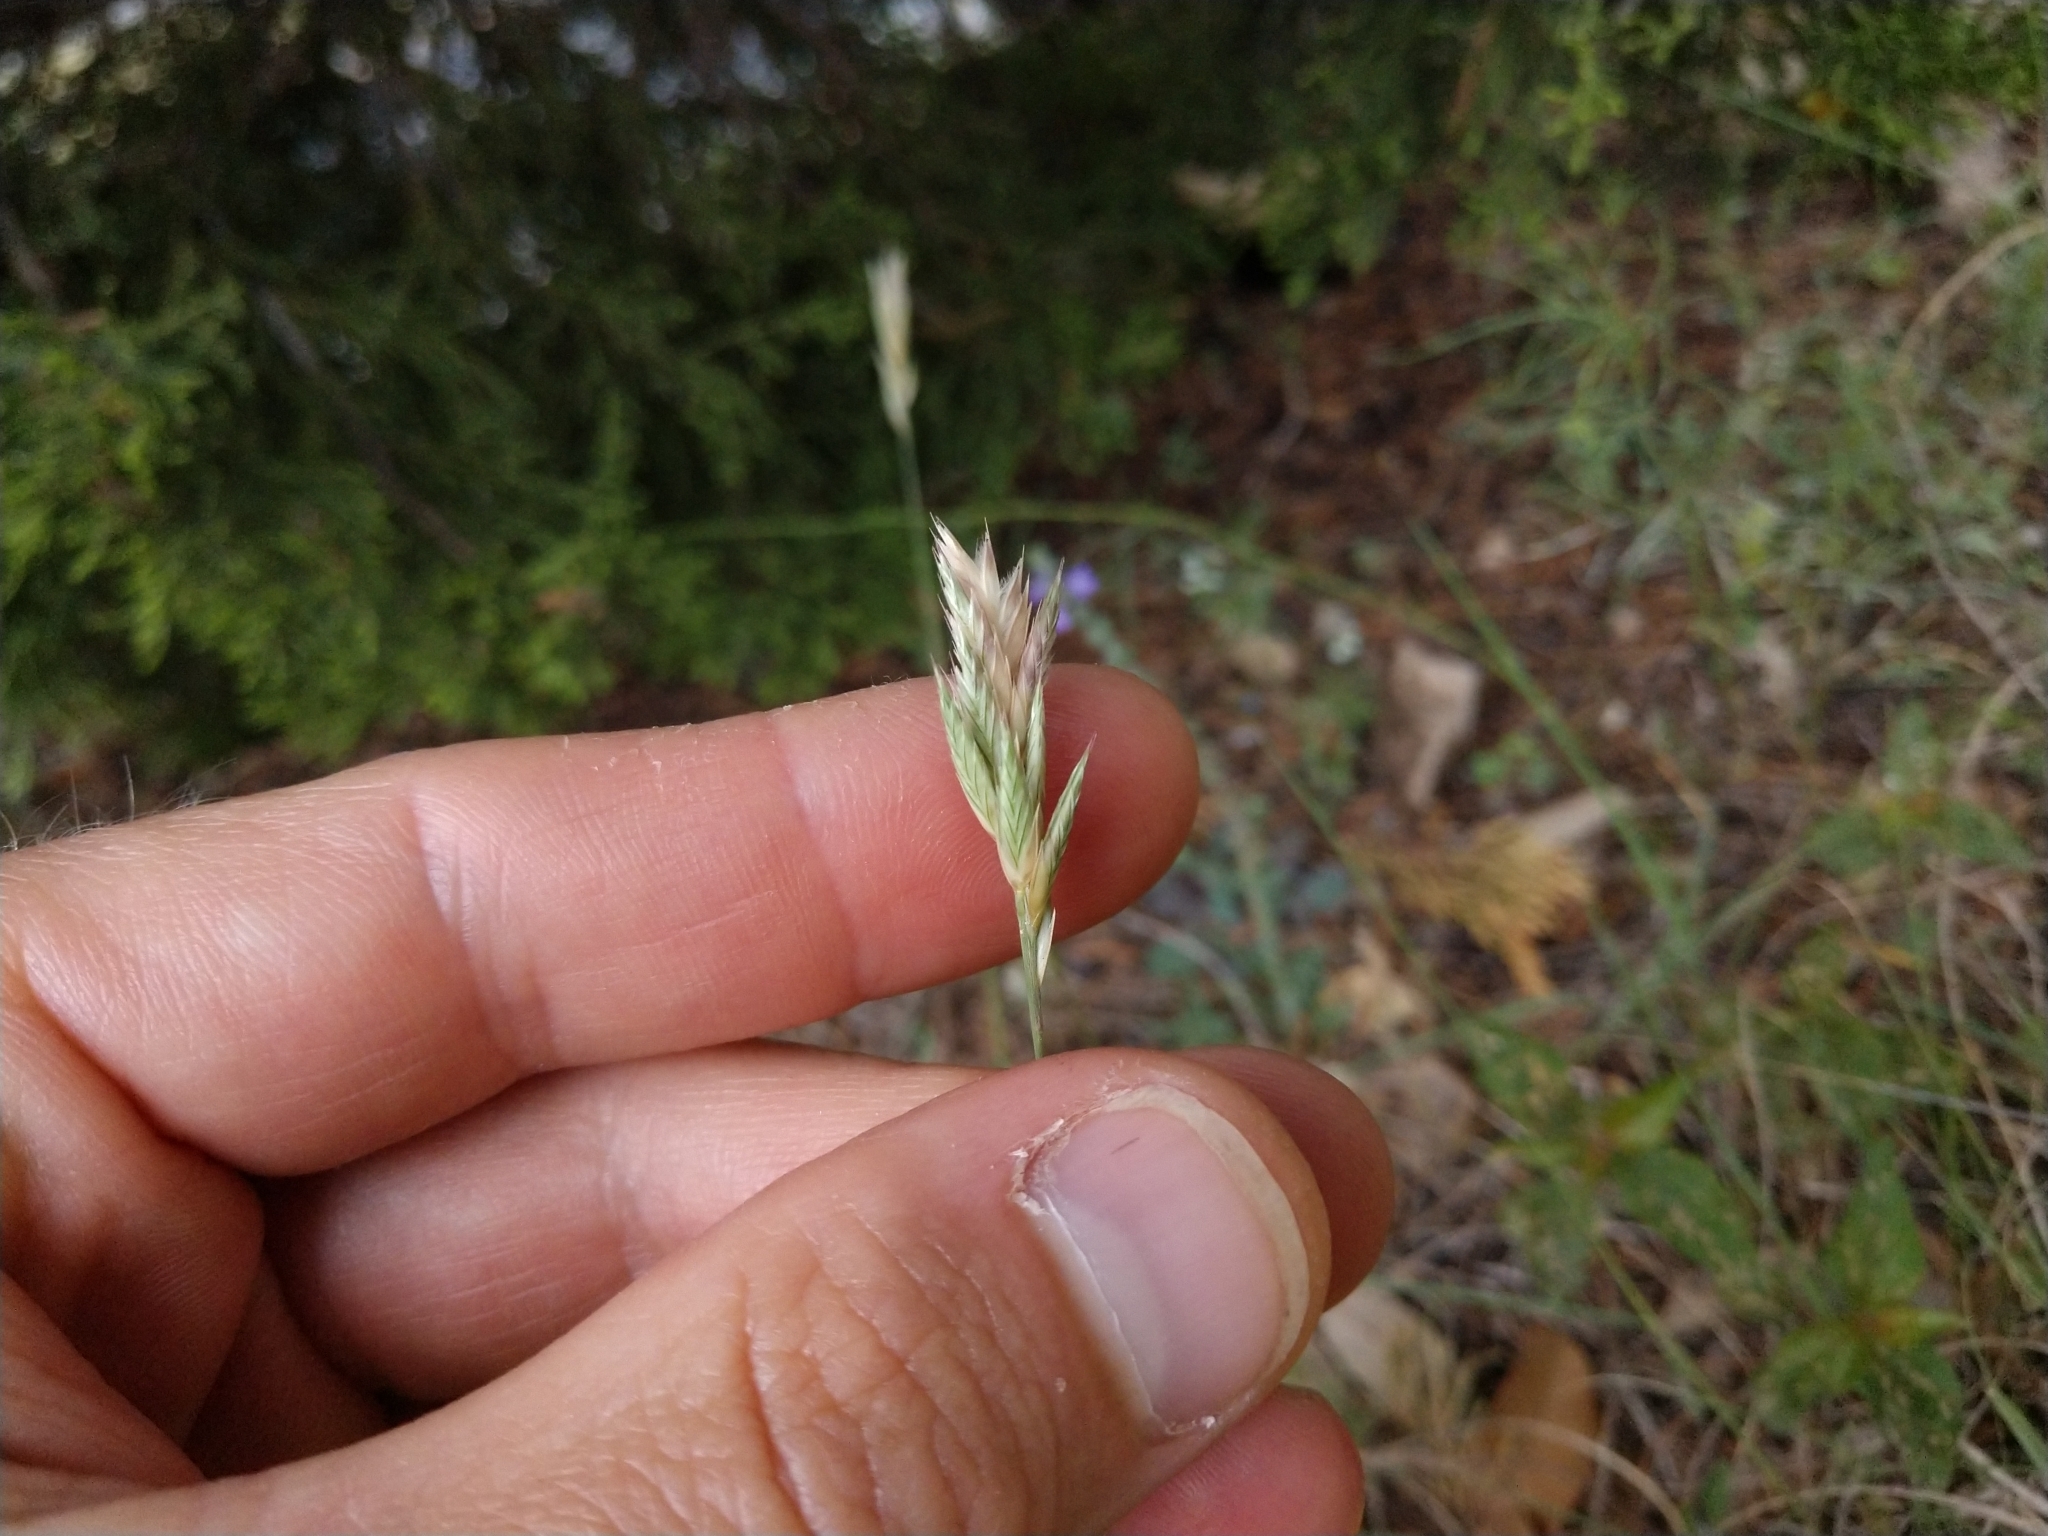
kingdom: Plantae
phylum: Tracheophyta
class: Liliopsida
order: Poales
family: Poaceae
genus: Erioneuron
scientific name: Erioneuron pilosum
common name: Hairy woolly grass
